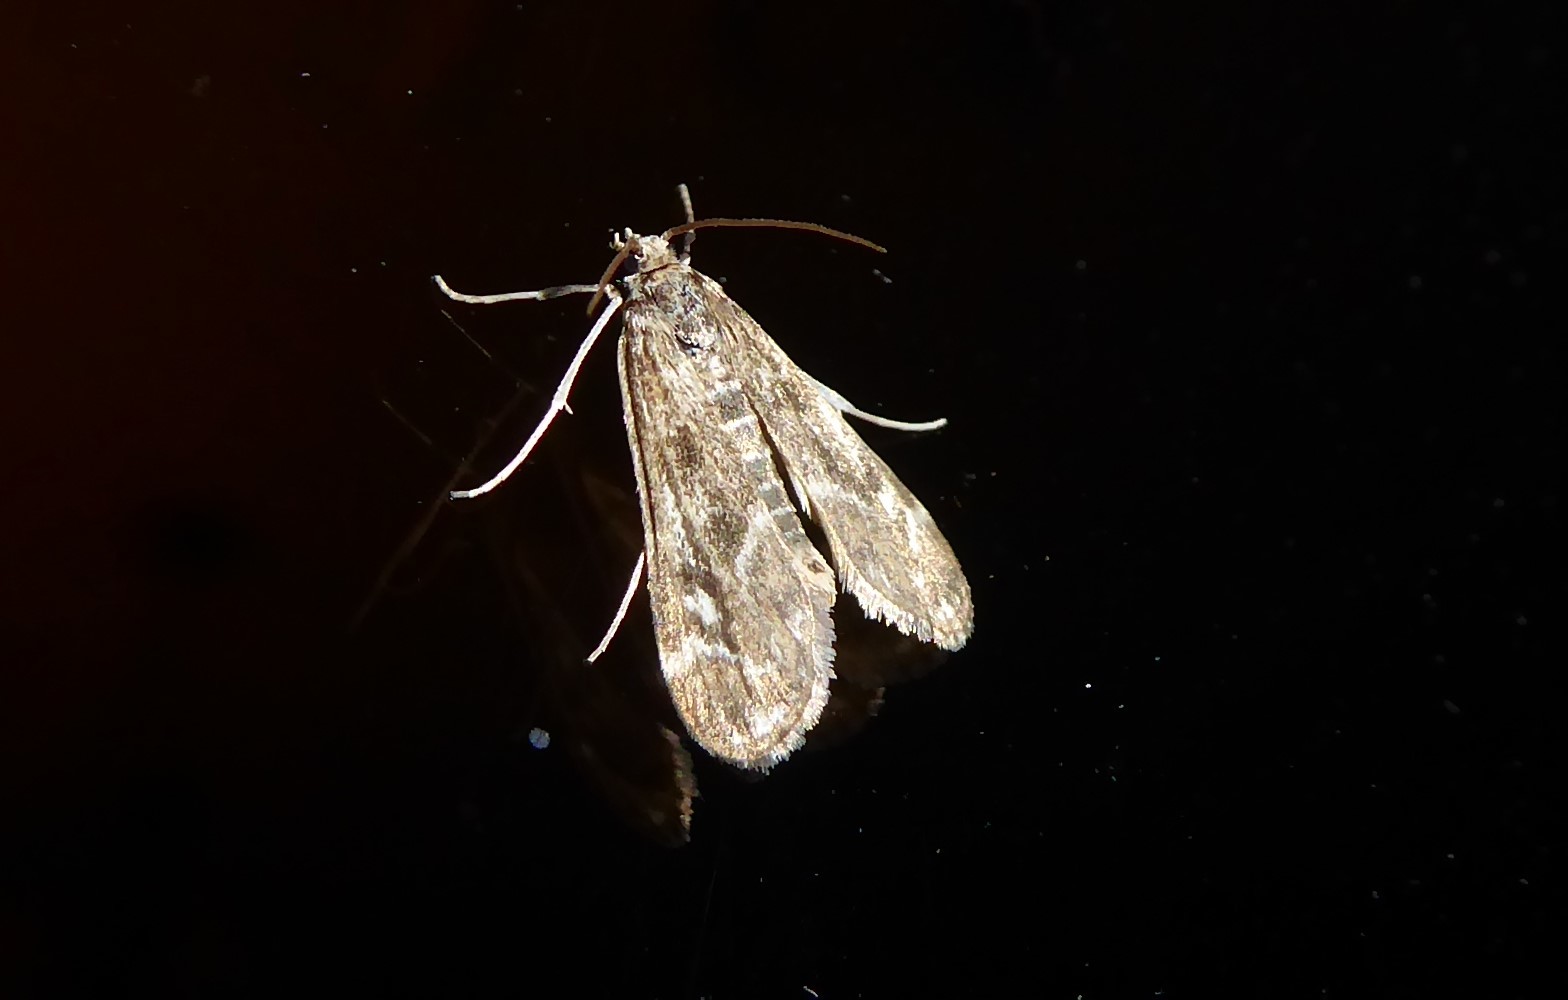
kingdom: Animalia
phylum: Arthropoda
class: Insecta
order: Lepidoptera
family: Crambidae
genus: Hygraula
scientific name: Hygraula nitens
